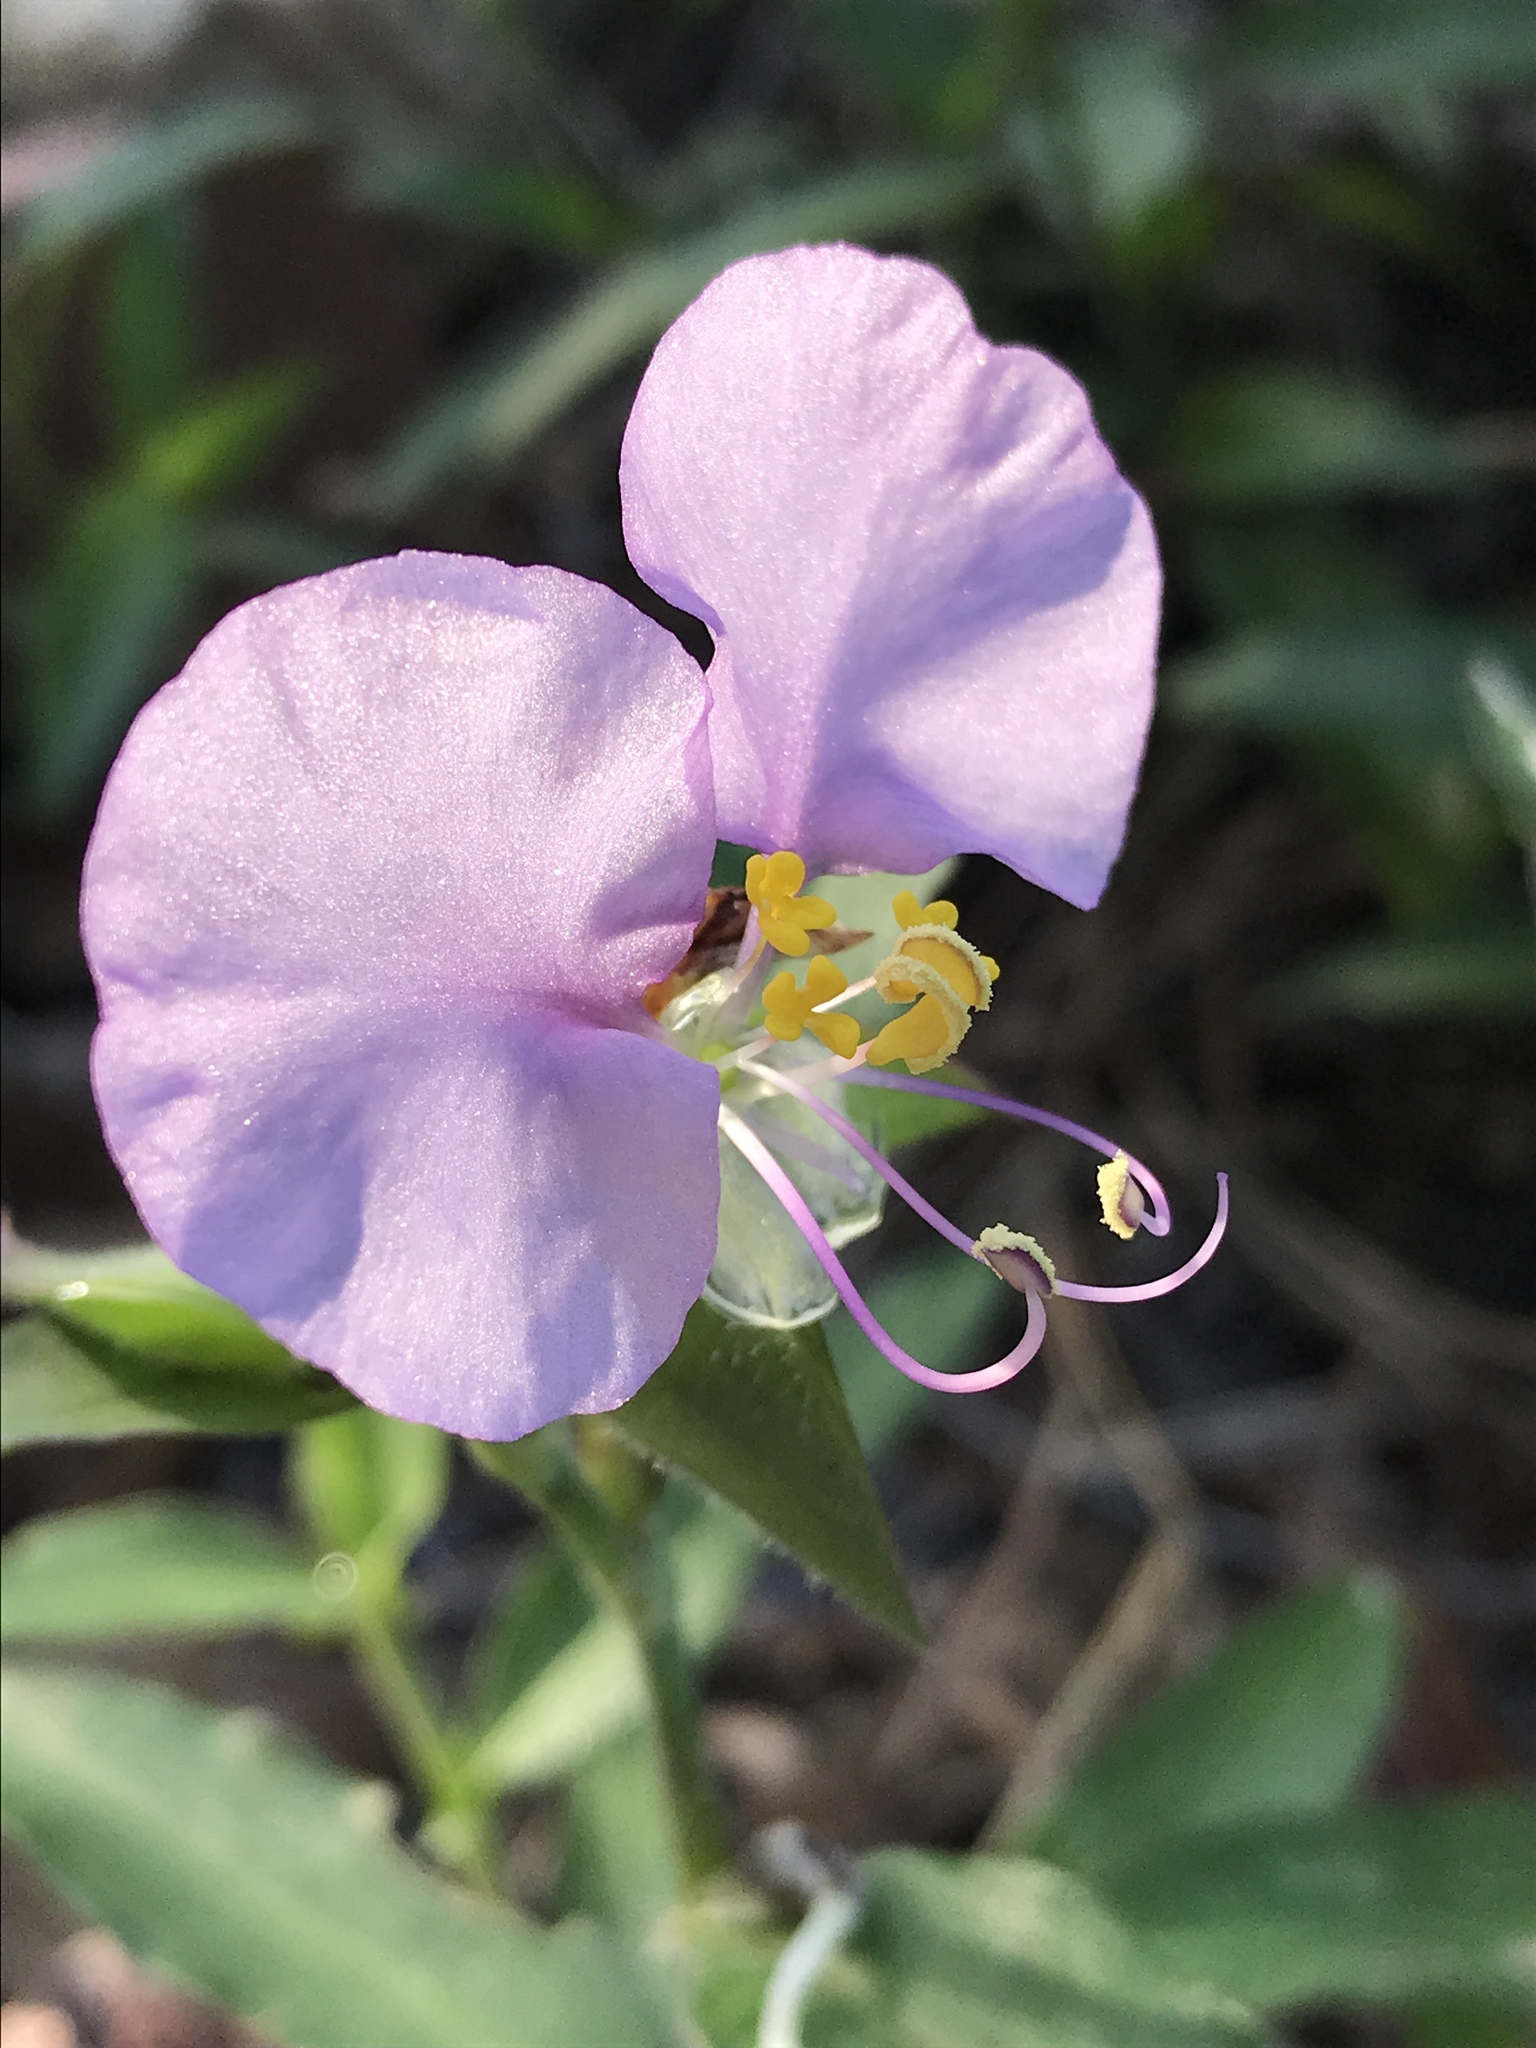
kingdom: Plantae
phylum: Tracheophyta
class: Liliopsida
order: Commelinales
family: Commelinaceae
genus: Commelina
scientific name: Commelina erecta
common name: Blousel blommetjie
